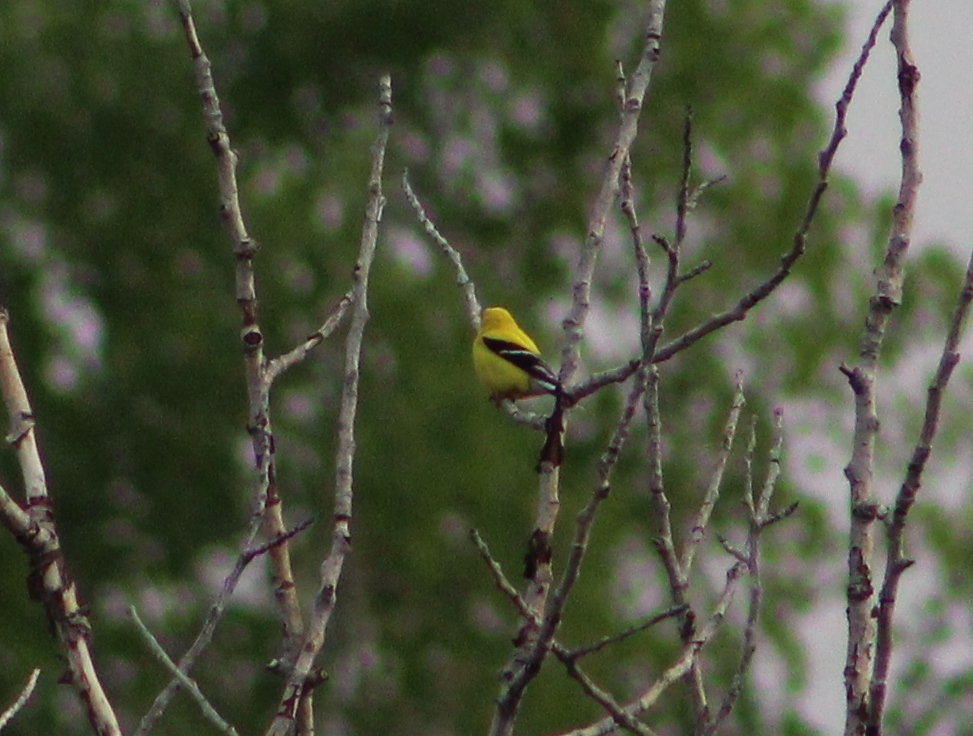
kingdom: Animalia
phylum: Chordata
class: Aves
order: Passeriformes
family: Fringillidae
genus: Spinus
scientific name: Spinus tristis
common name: American goldfinch
